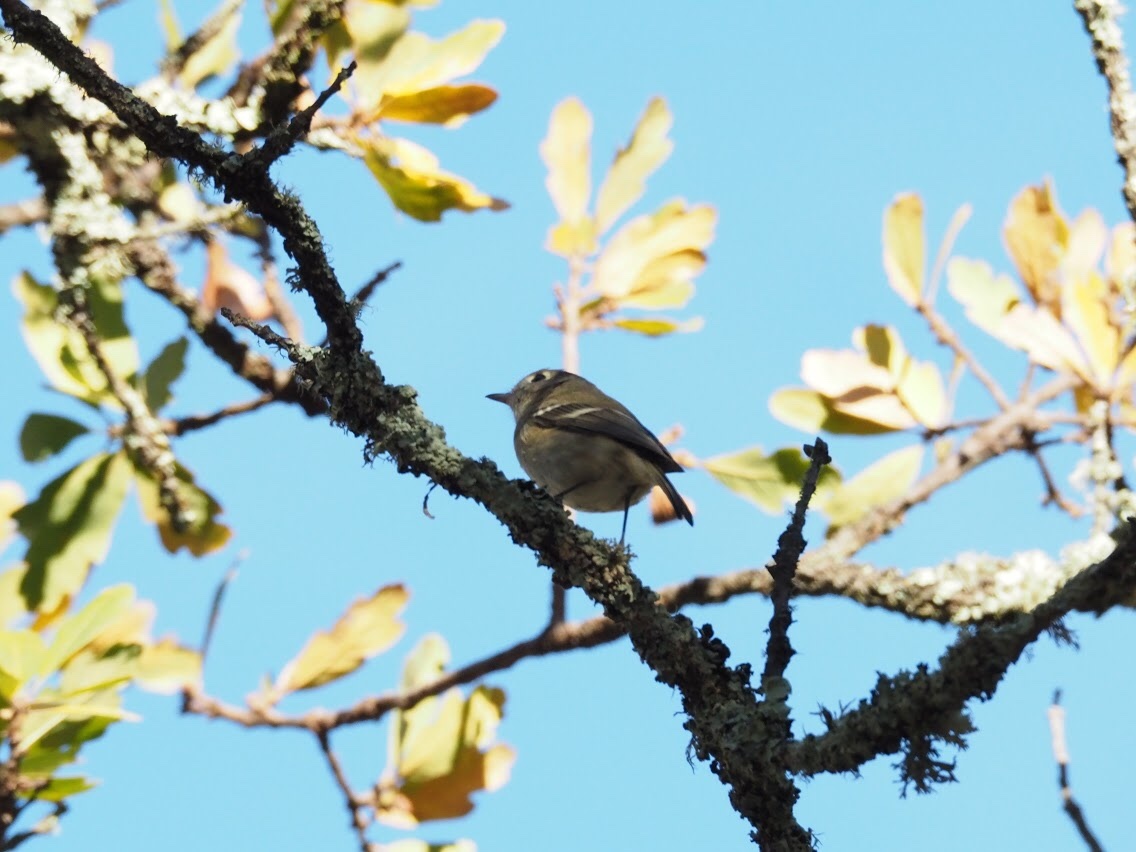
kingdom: Animalia
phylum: Chordata
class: Aves
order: Passeriformes
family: Vireonidae
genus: Vireo
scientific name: Vireo huttoni
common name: Hutton's vireo
